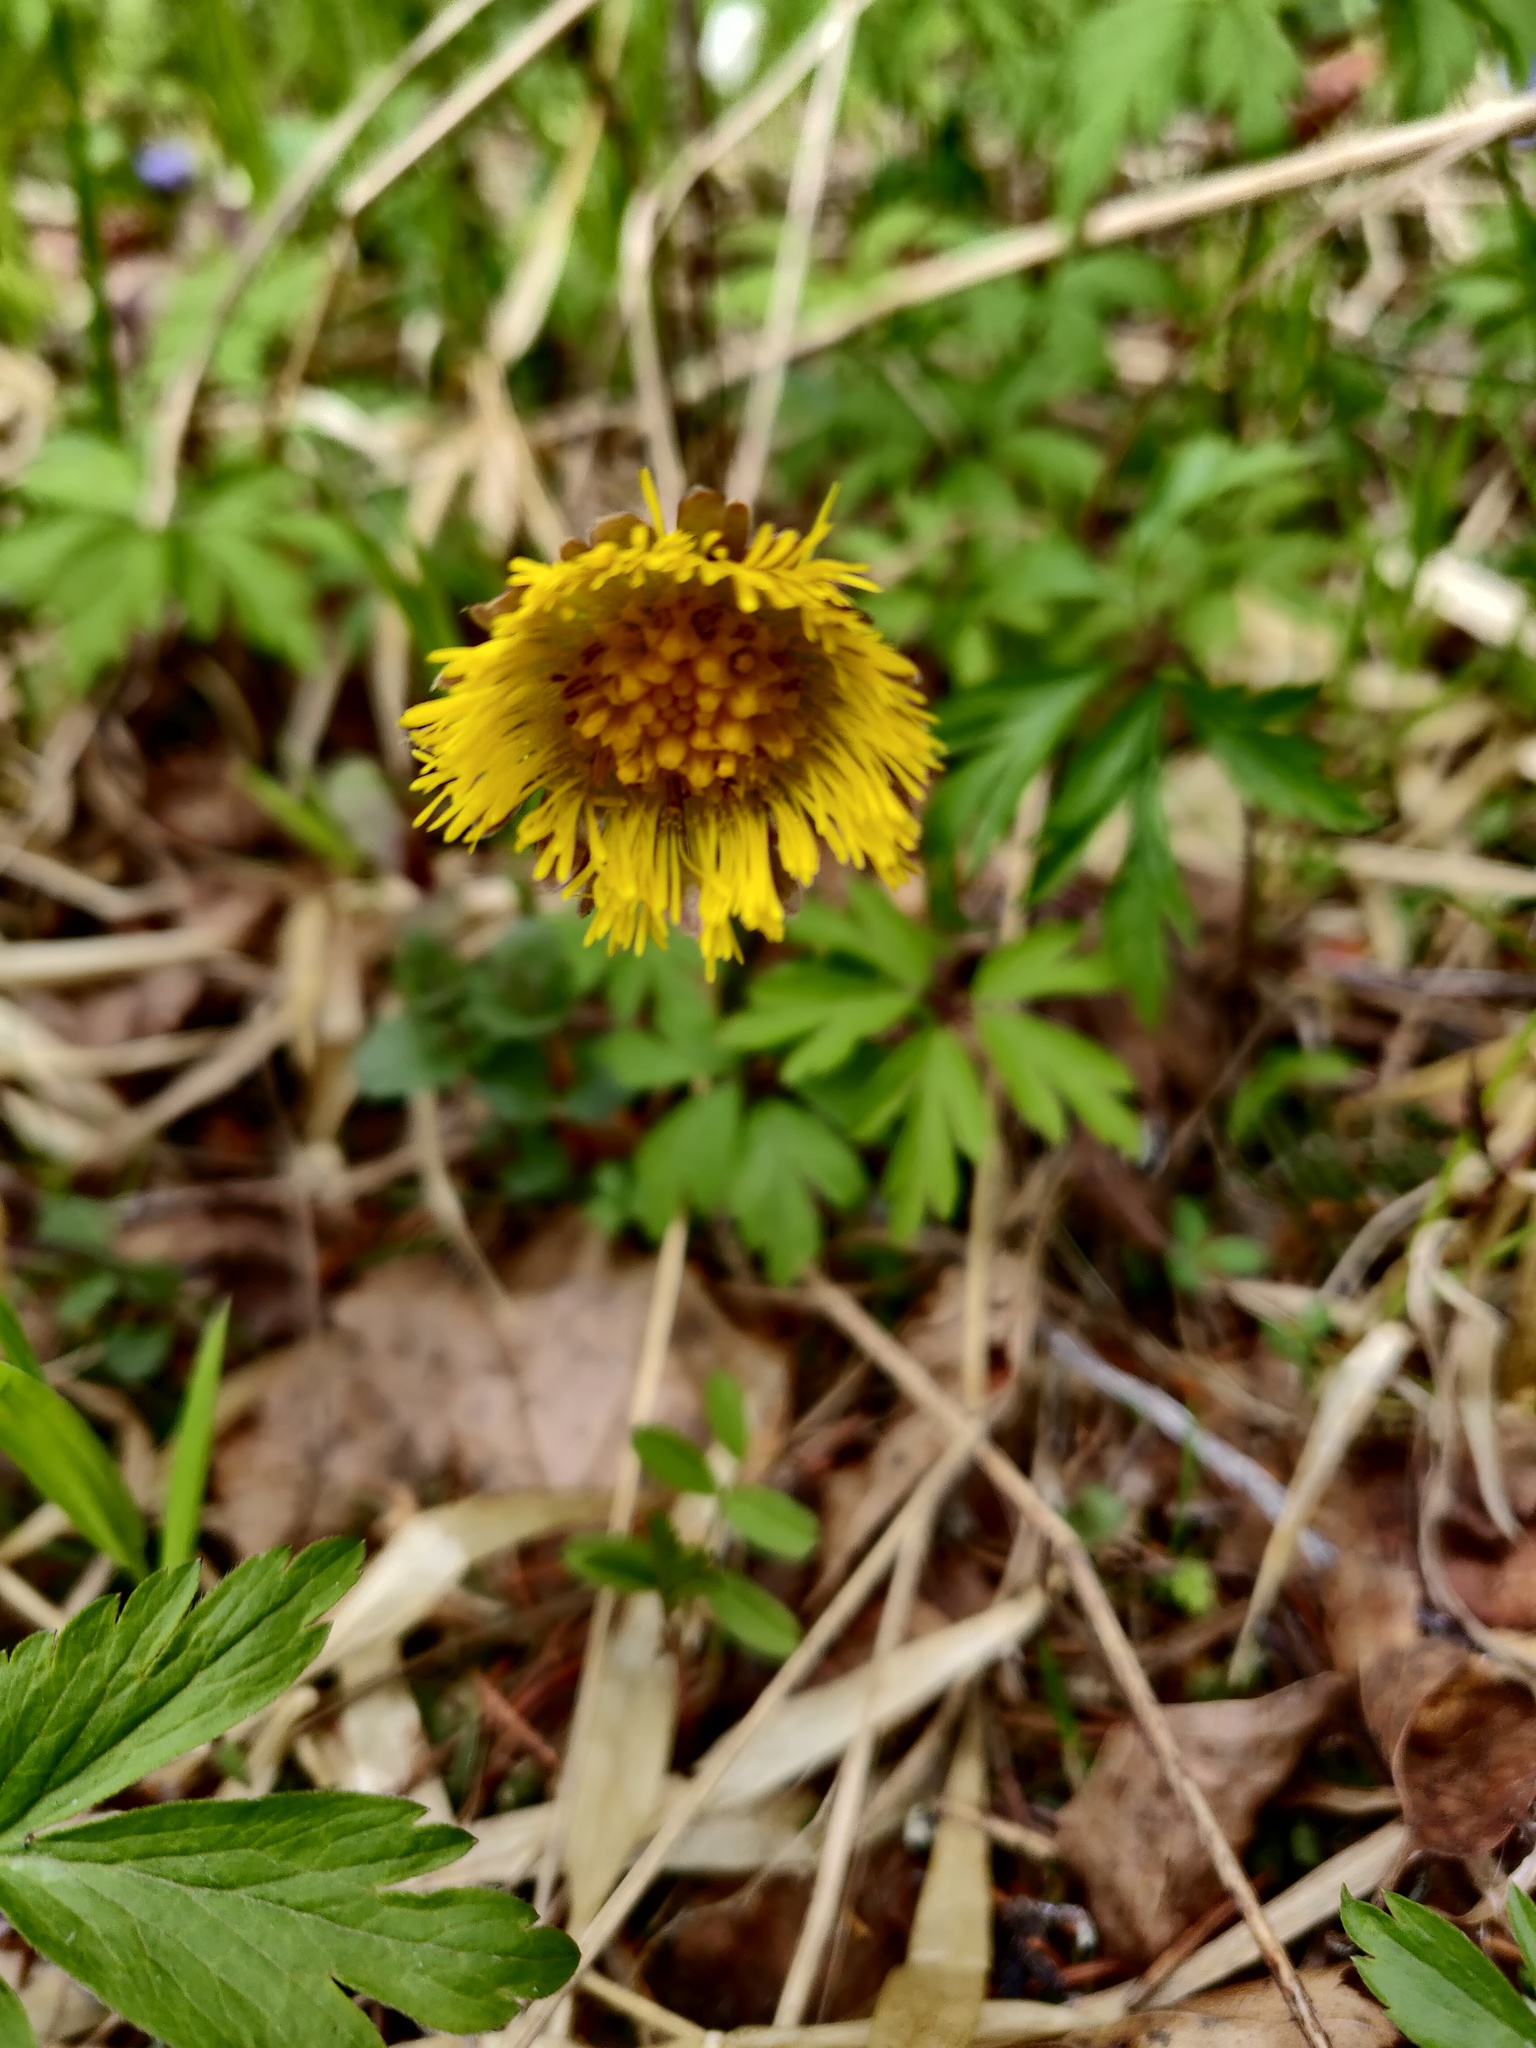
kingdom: Plantae
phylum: Tracheophyta
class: Magnoliopsida
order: Asterales
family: Asteraceae
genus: Tussilago
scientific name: Tussilago farfara
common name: Coltsfoot
